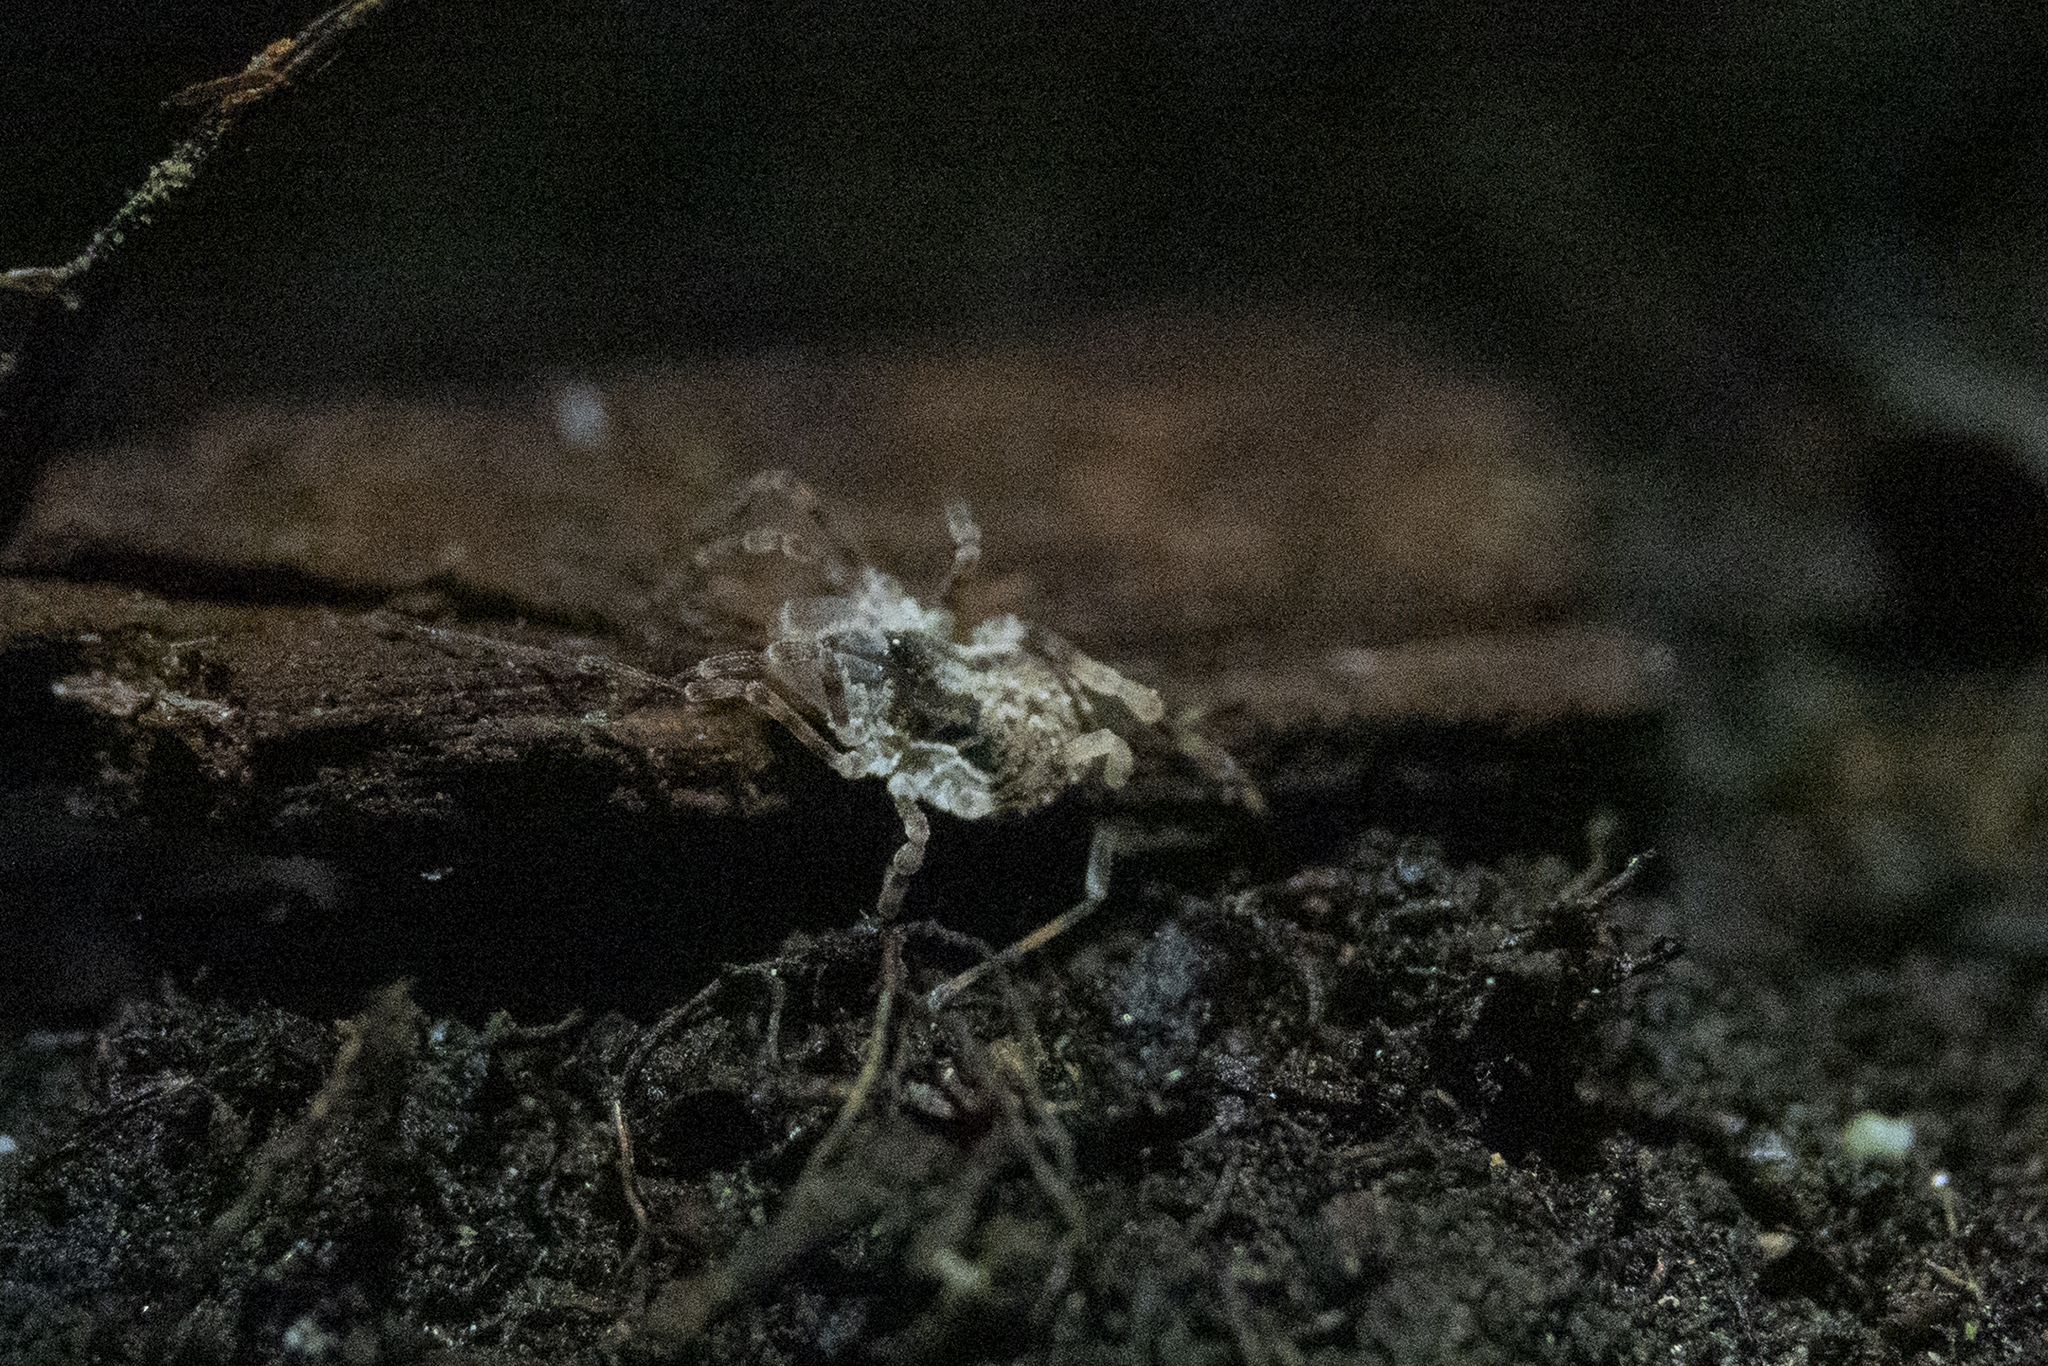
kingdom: Animalia
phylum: Arthropoda
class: Arachnida
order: Opiliones
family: Triaenonychidae
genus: Pristobunus
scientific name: Pristobunus acentrus
